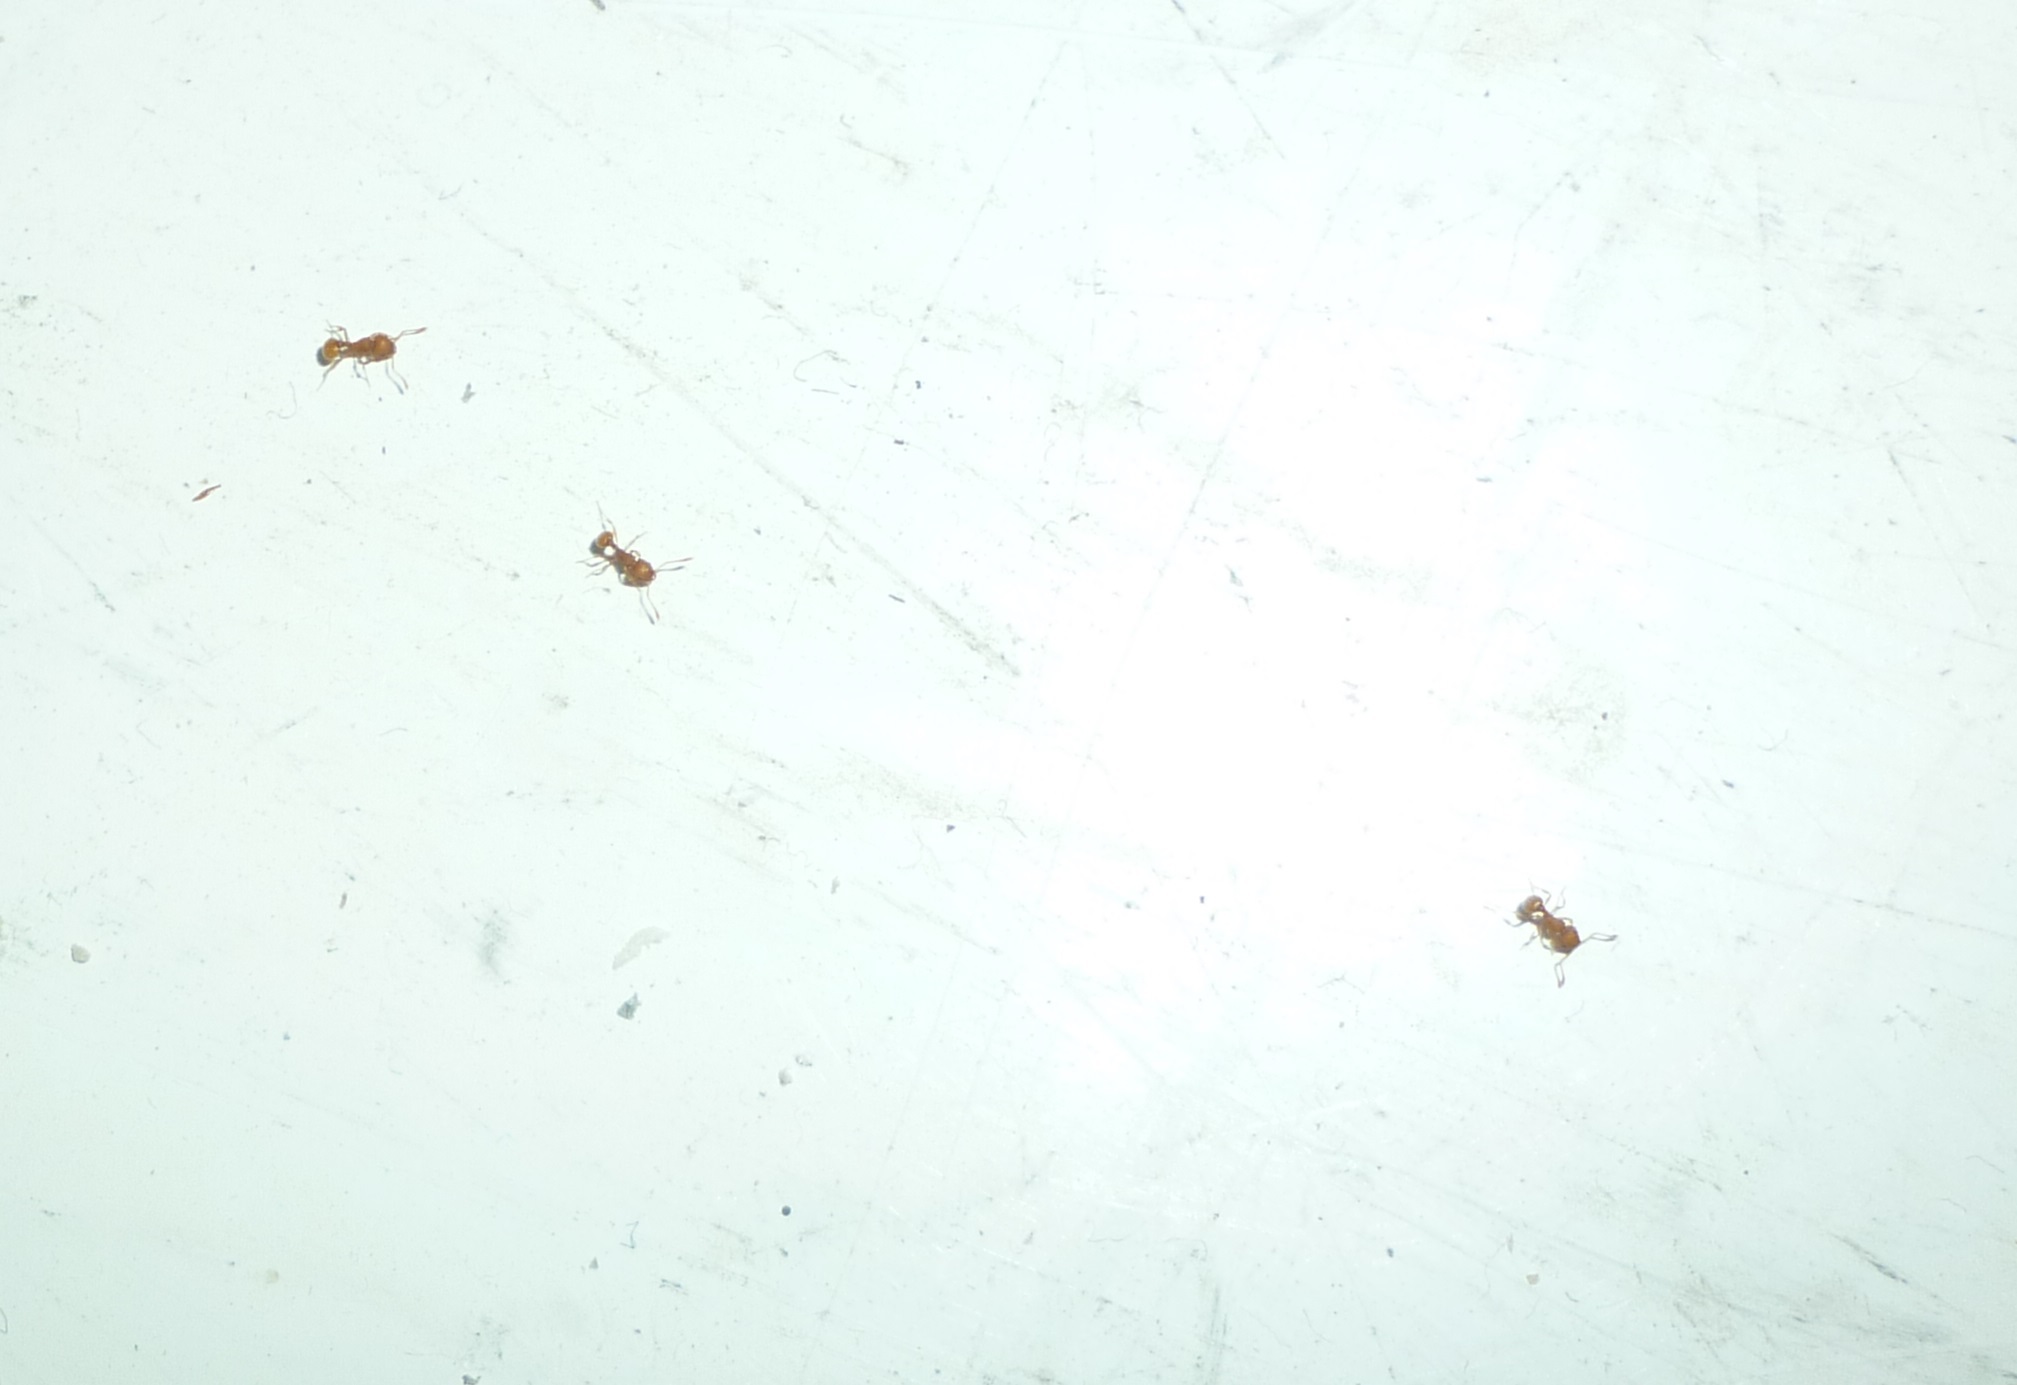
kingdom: Animalia
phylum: Arthropoda
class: Insecta
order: Hymenoptera
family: Formicidae
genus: Wasmannia
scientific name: Wasmannia auropunctata
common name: Little fire ant
